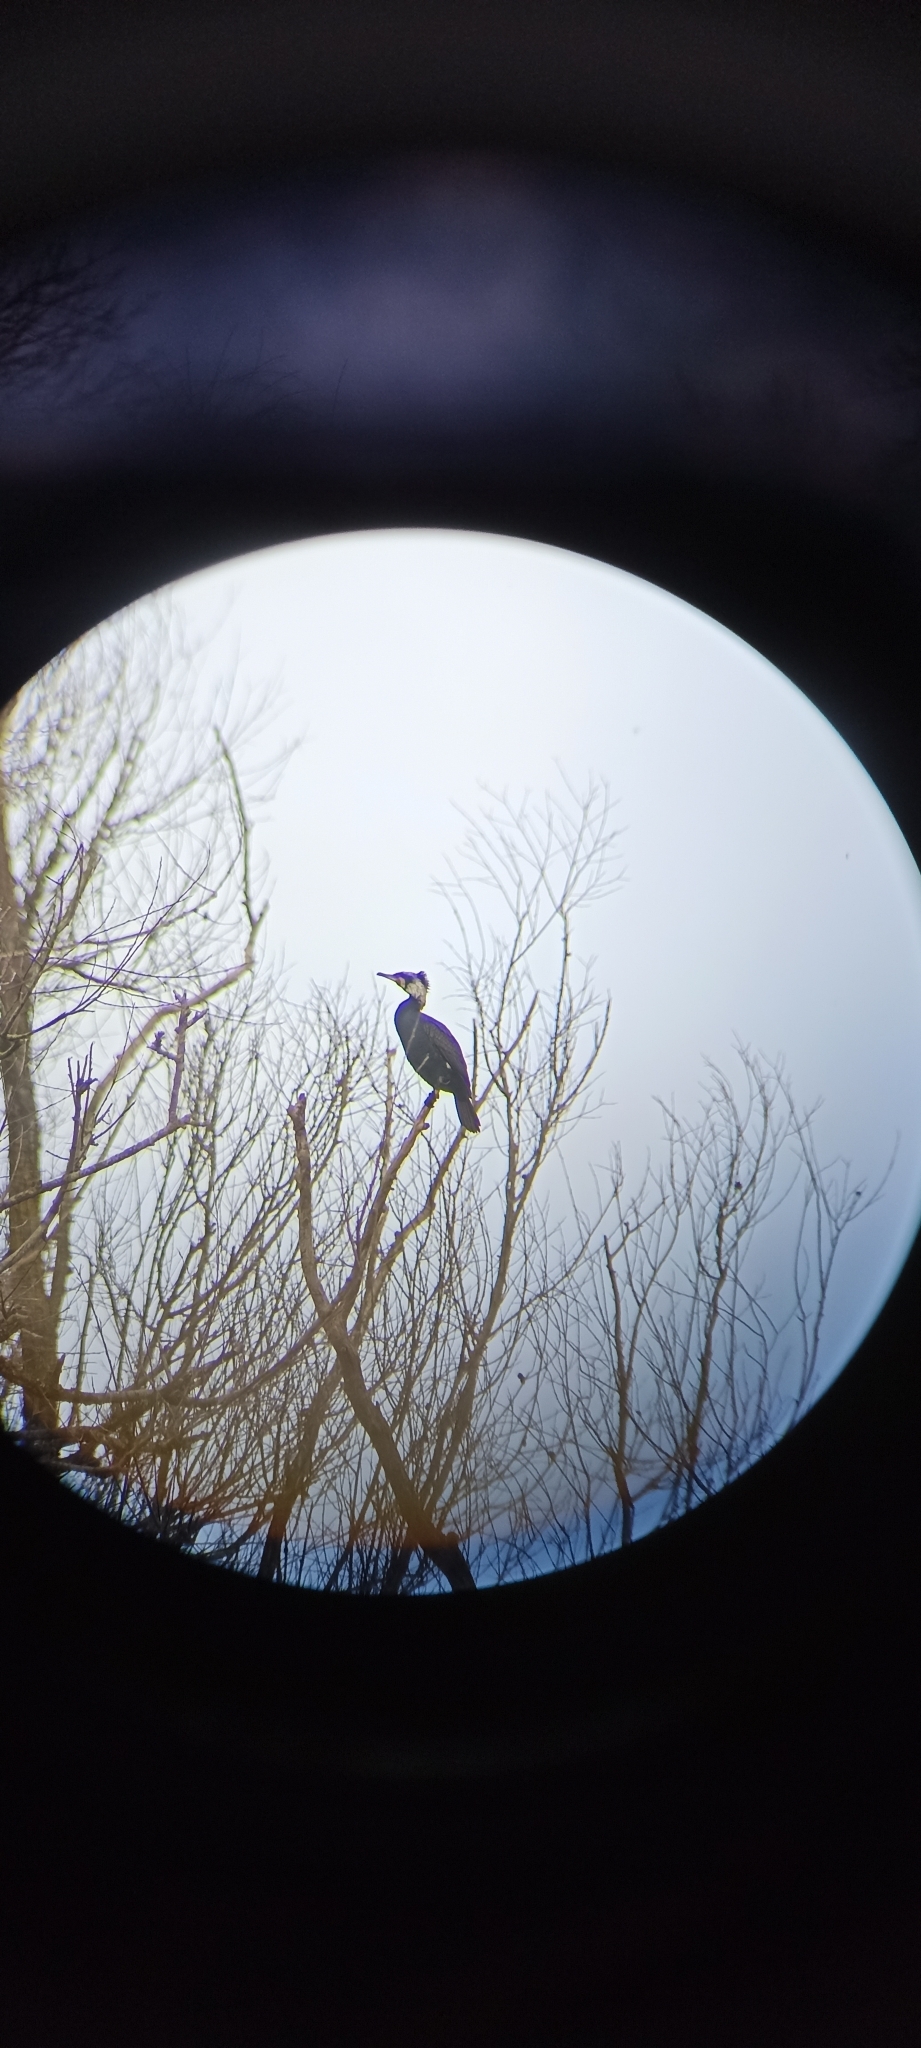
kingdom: Animalia
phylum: Chordata
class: Aves
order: Suliformes
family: Phalacrocoracidae
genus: Phalacrocorax
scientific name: Phalacrocorax carbo
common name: Great cormorant
